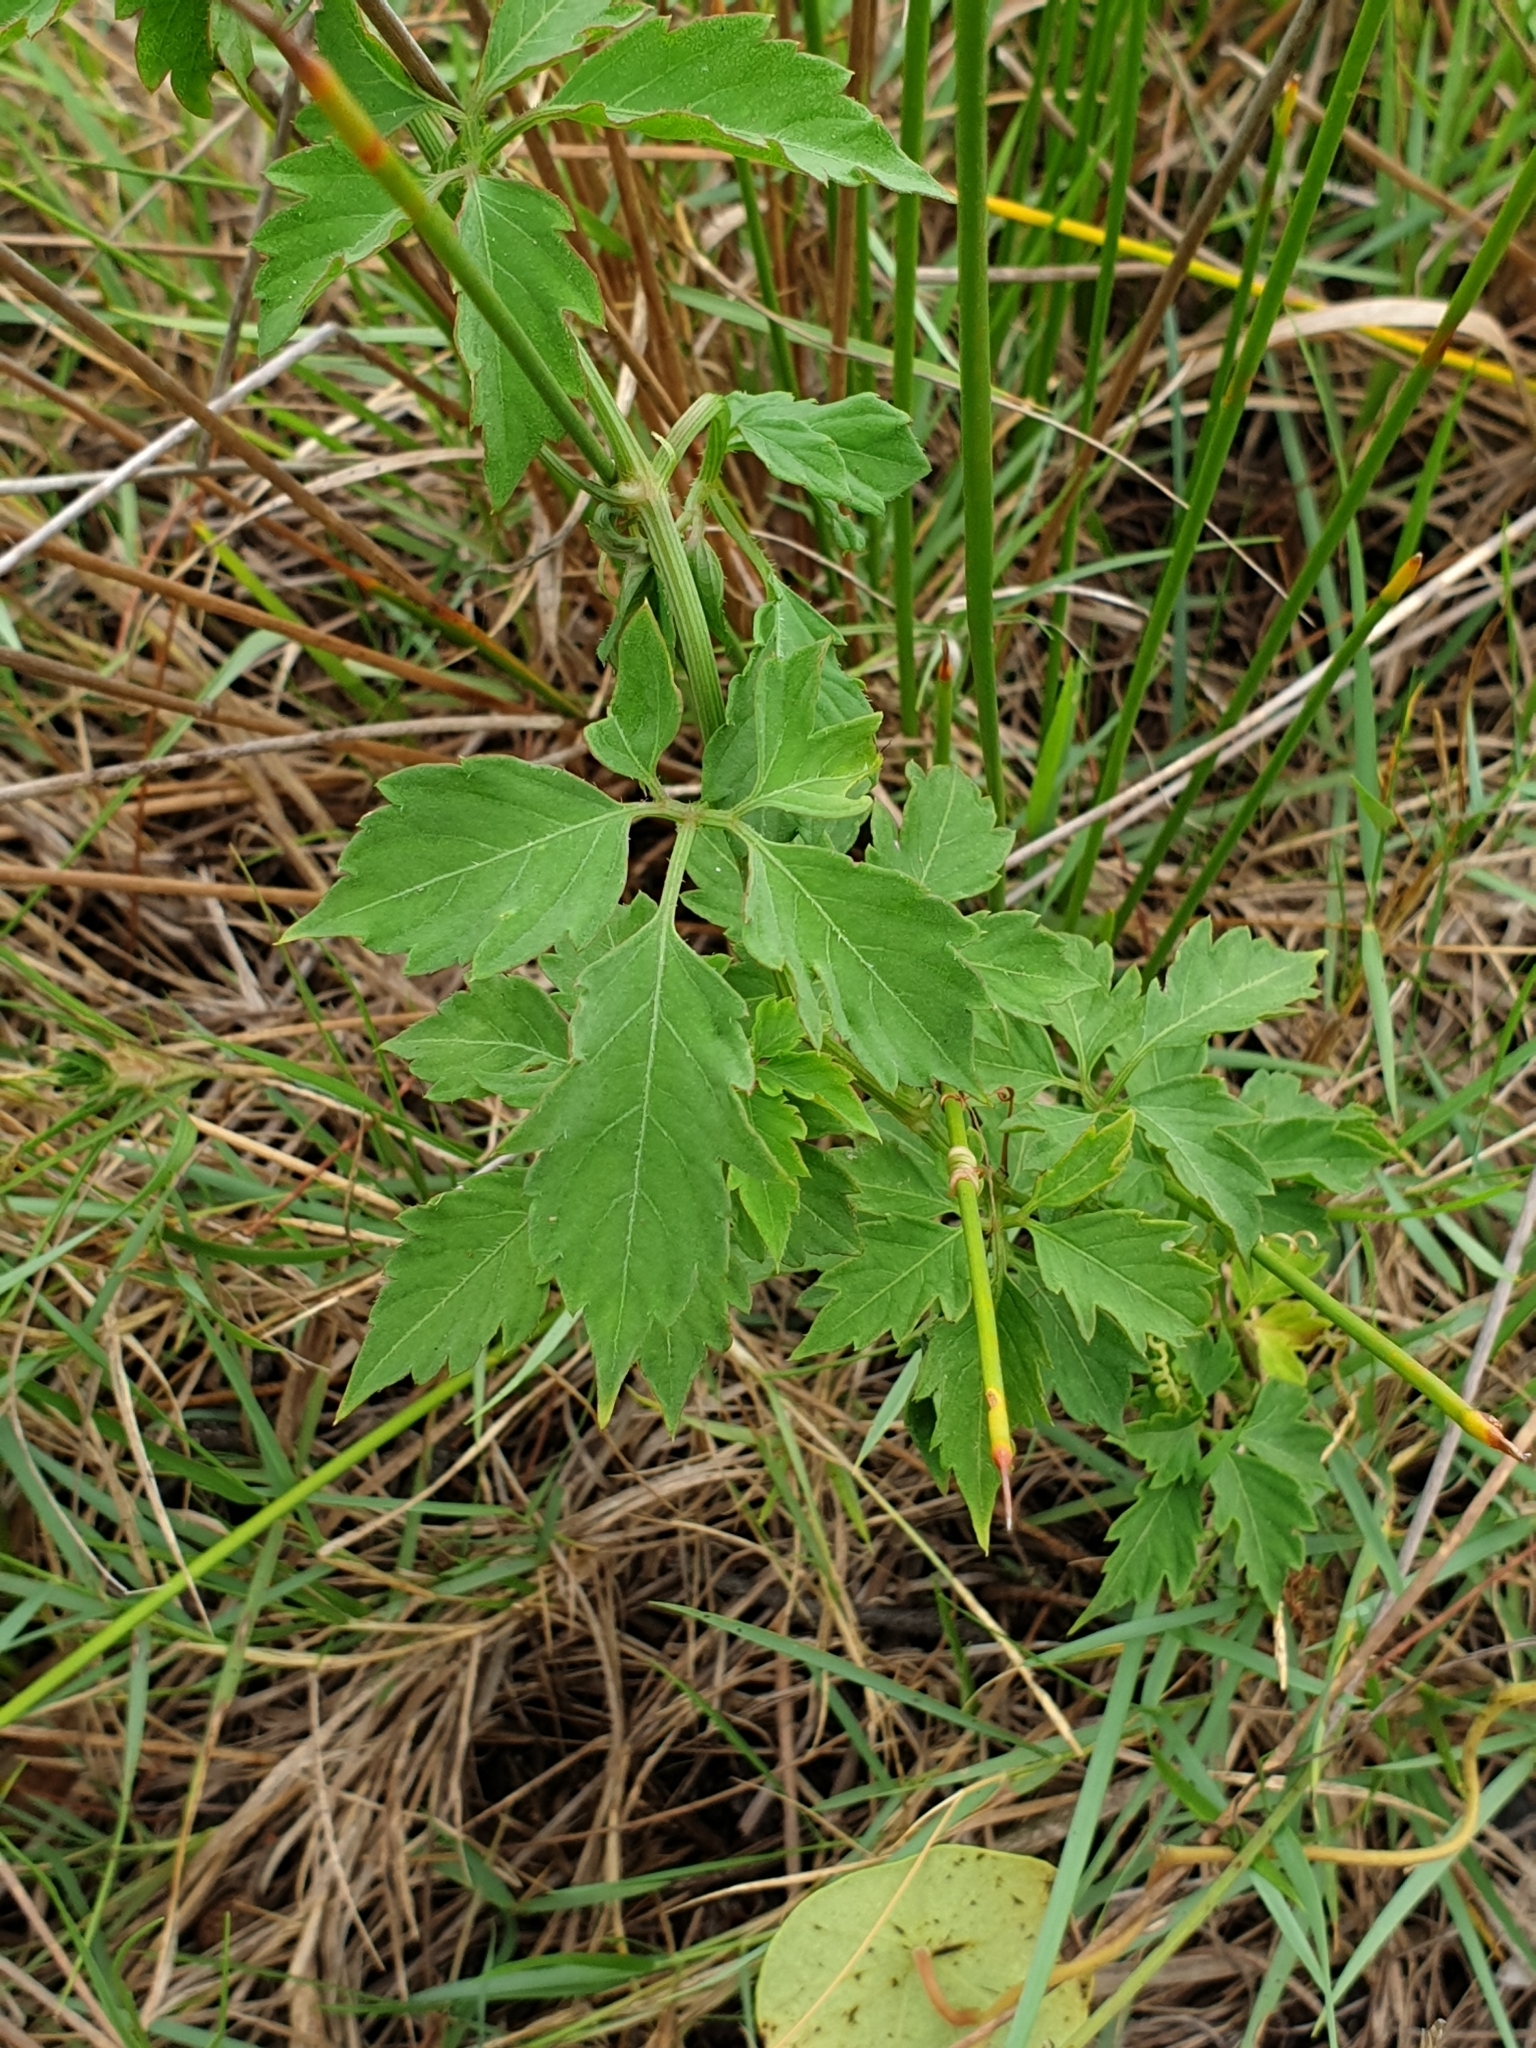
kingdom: Plantae
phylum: Tracheophyta
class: Magnoliopsida
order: Vitales
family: Vitaceae
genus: Causonis
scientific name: Causonis clematidea
